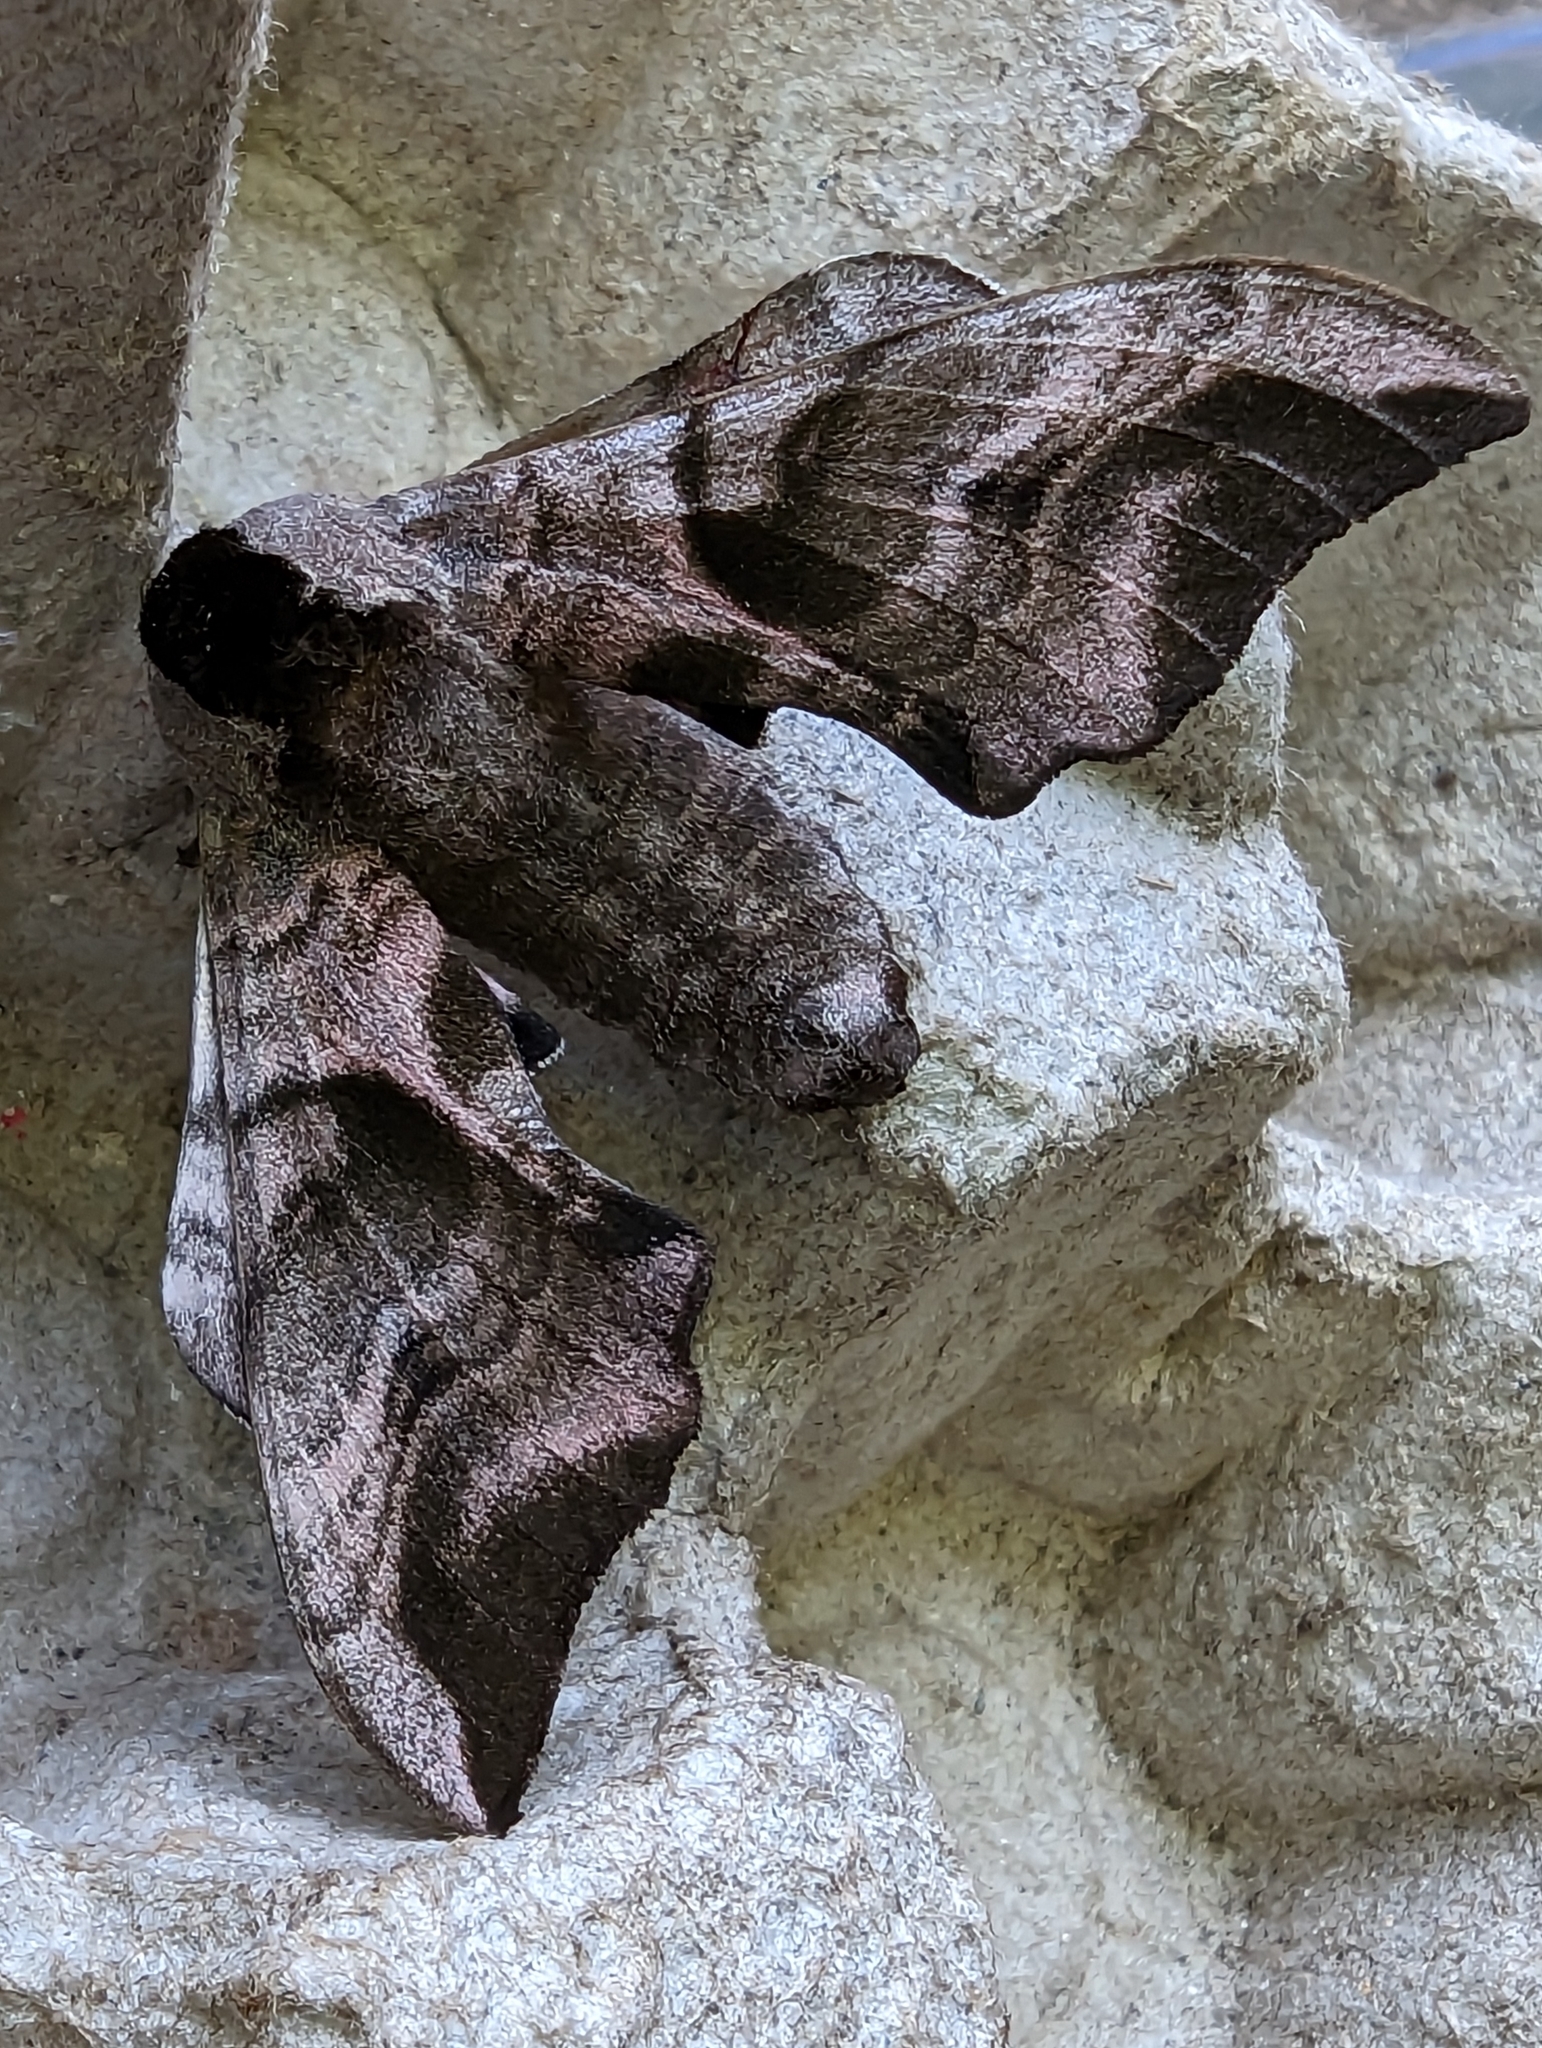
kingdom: Animalia
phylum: Arthropoda
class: Insecta
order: Lepidoptera
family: Sphingidae
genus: Smerinthus
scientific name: Smerinthus ocellata
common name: Eyed hawk-moth
